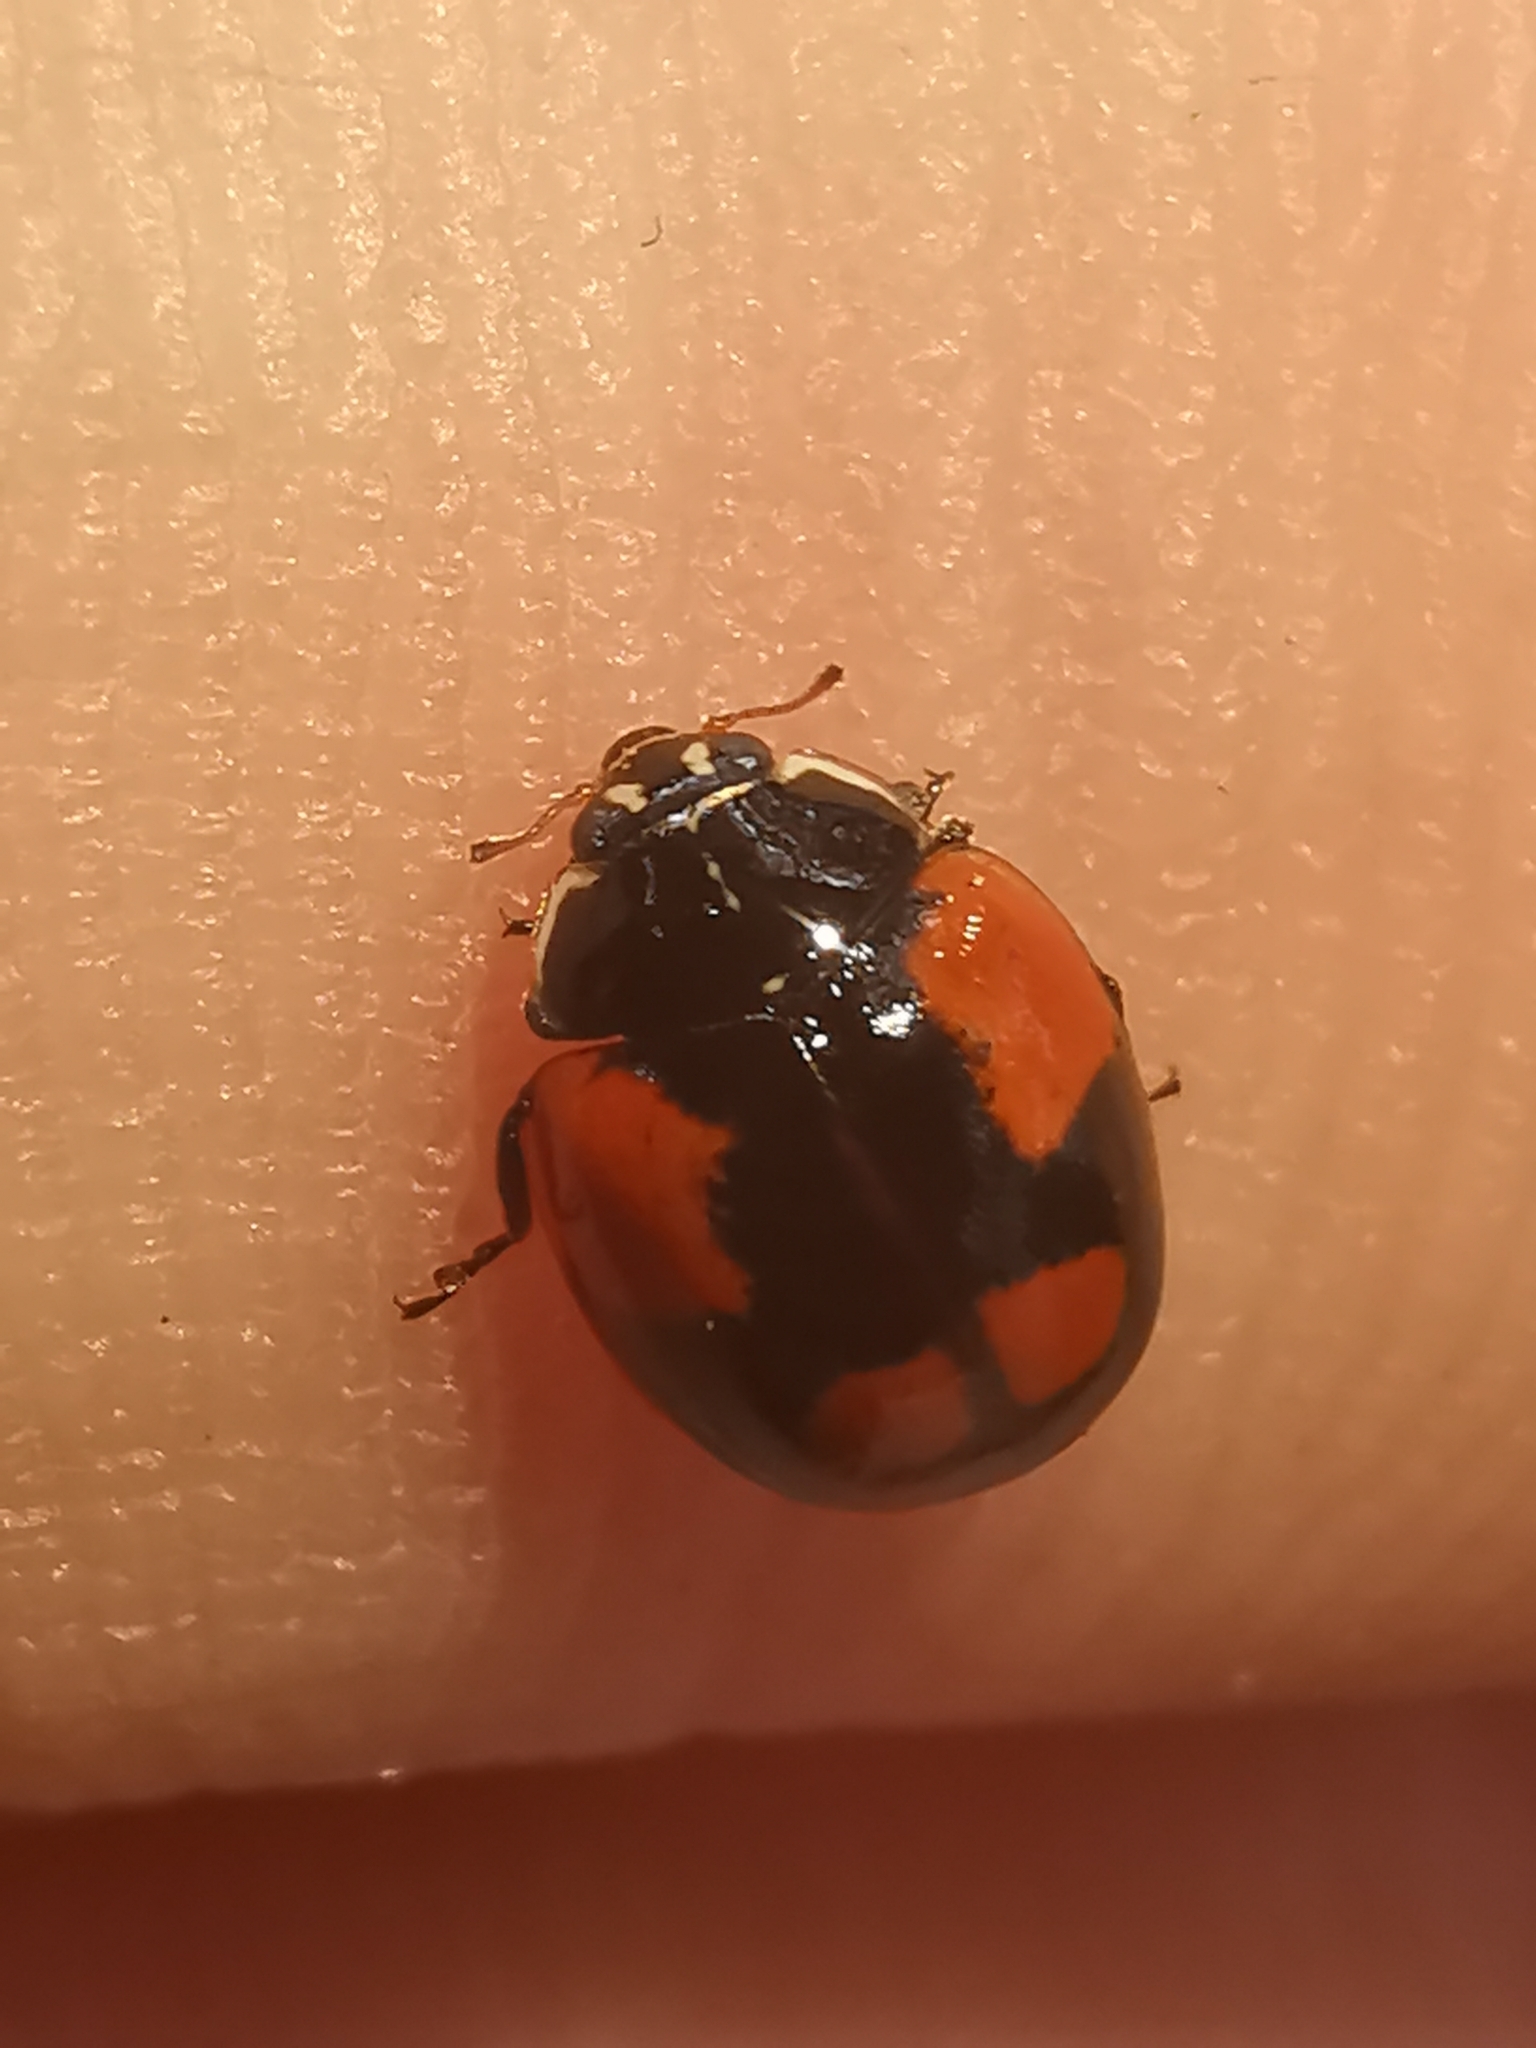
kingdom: Animalia
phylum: Arthropoda
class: Insecta
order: Coleoptera
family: Coccinellidae
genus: Adalia
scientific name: Adalia bipunctata
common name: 2-spot ladybird
